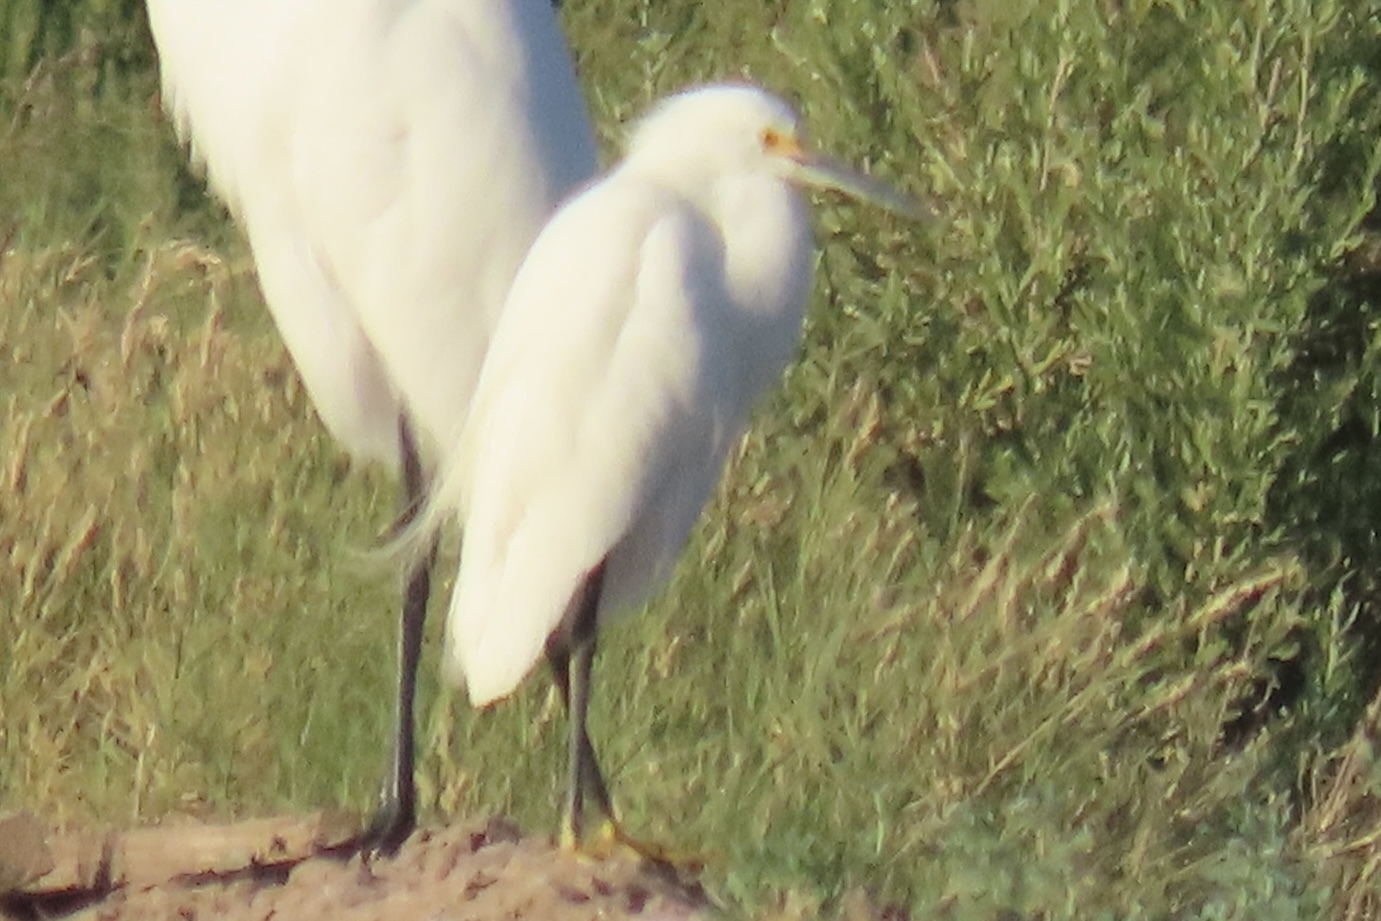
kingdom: Animalia
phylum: Chordata
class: Aves
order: Pelecaniformes
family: Ardeidae
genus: Egretta
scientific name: Egretta thula
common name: Snowy egret
